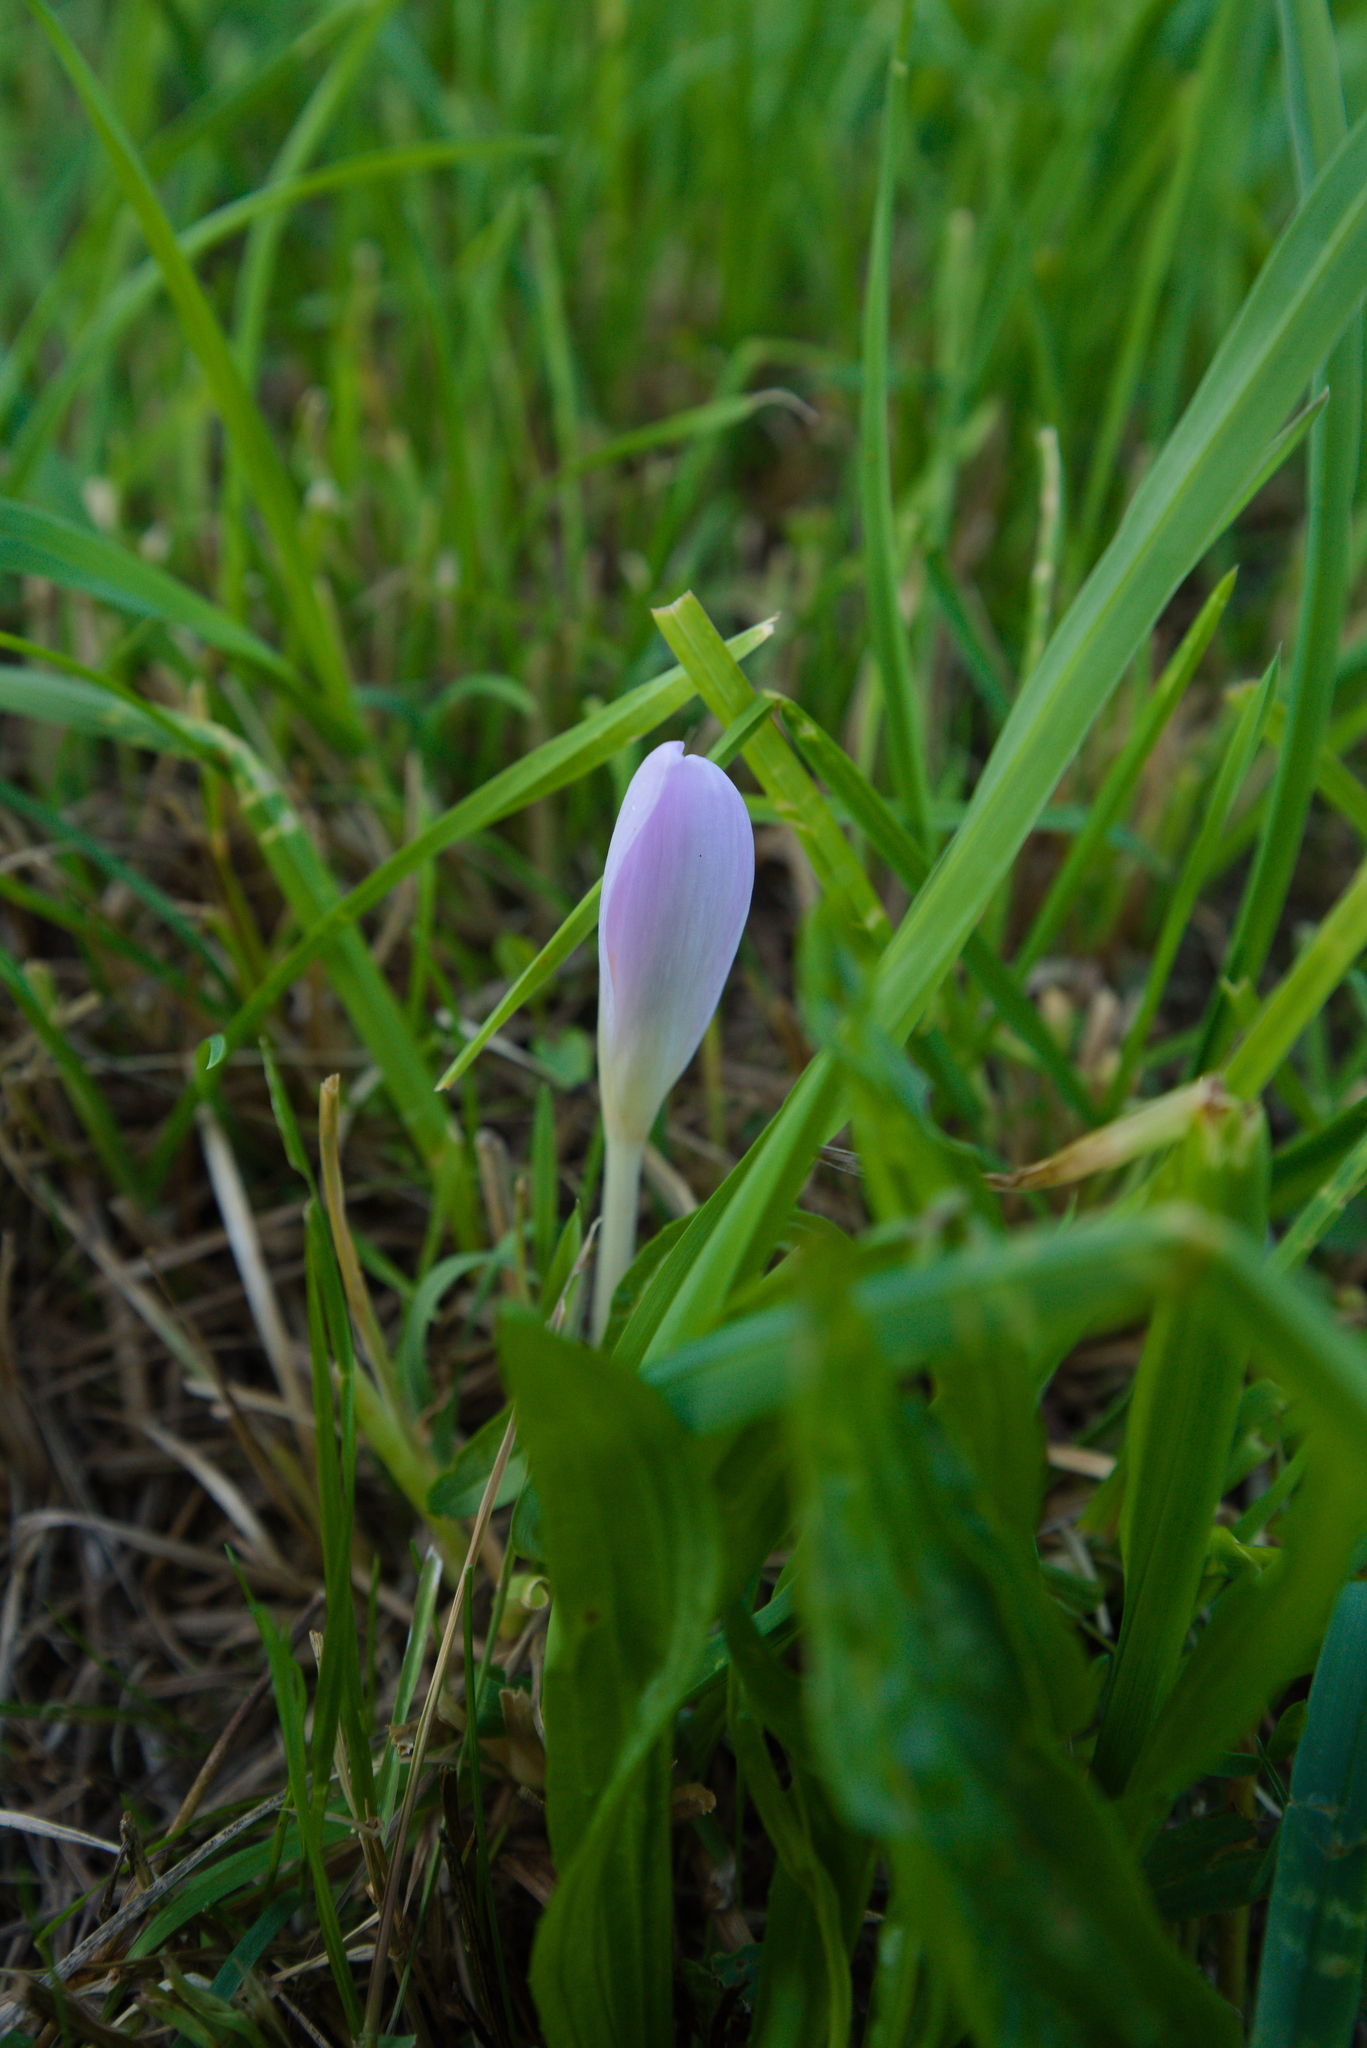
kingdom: Plantae
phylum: Tracheophyta
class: Liliopsida
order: Liliales
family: Colchicaceae
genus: Colchicum
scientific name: Colchicum autumnale
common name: Autumn crocus
